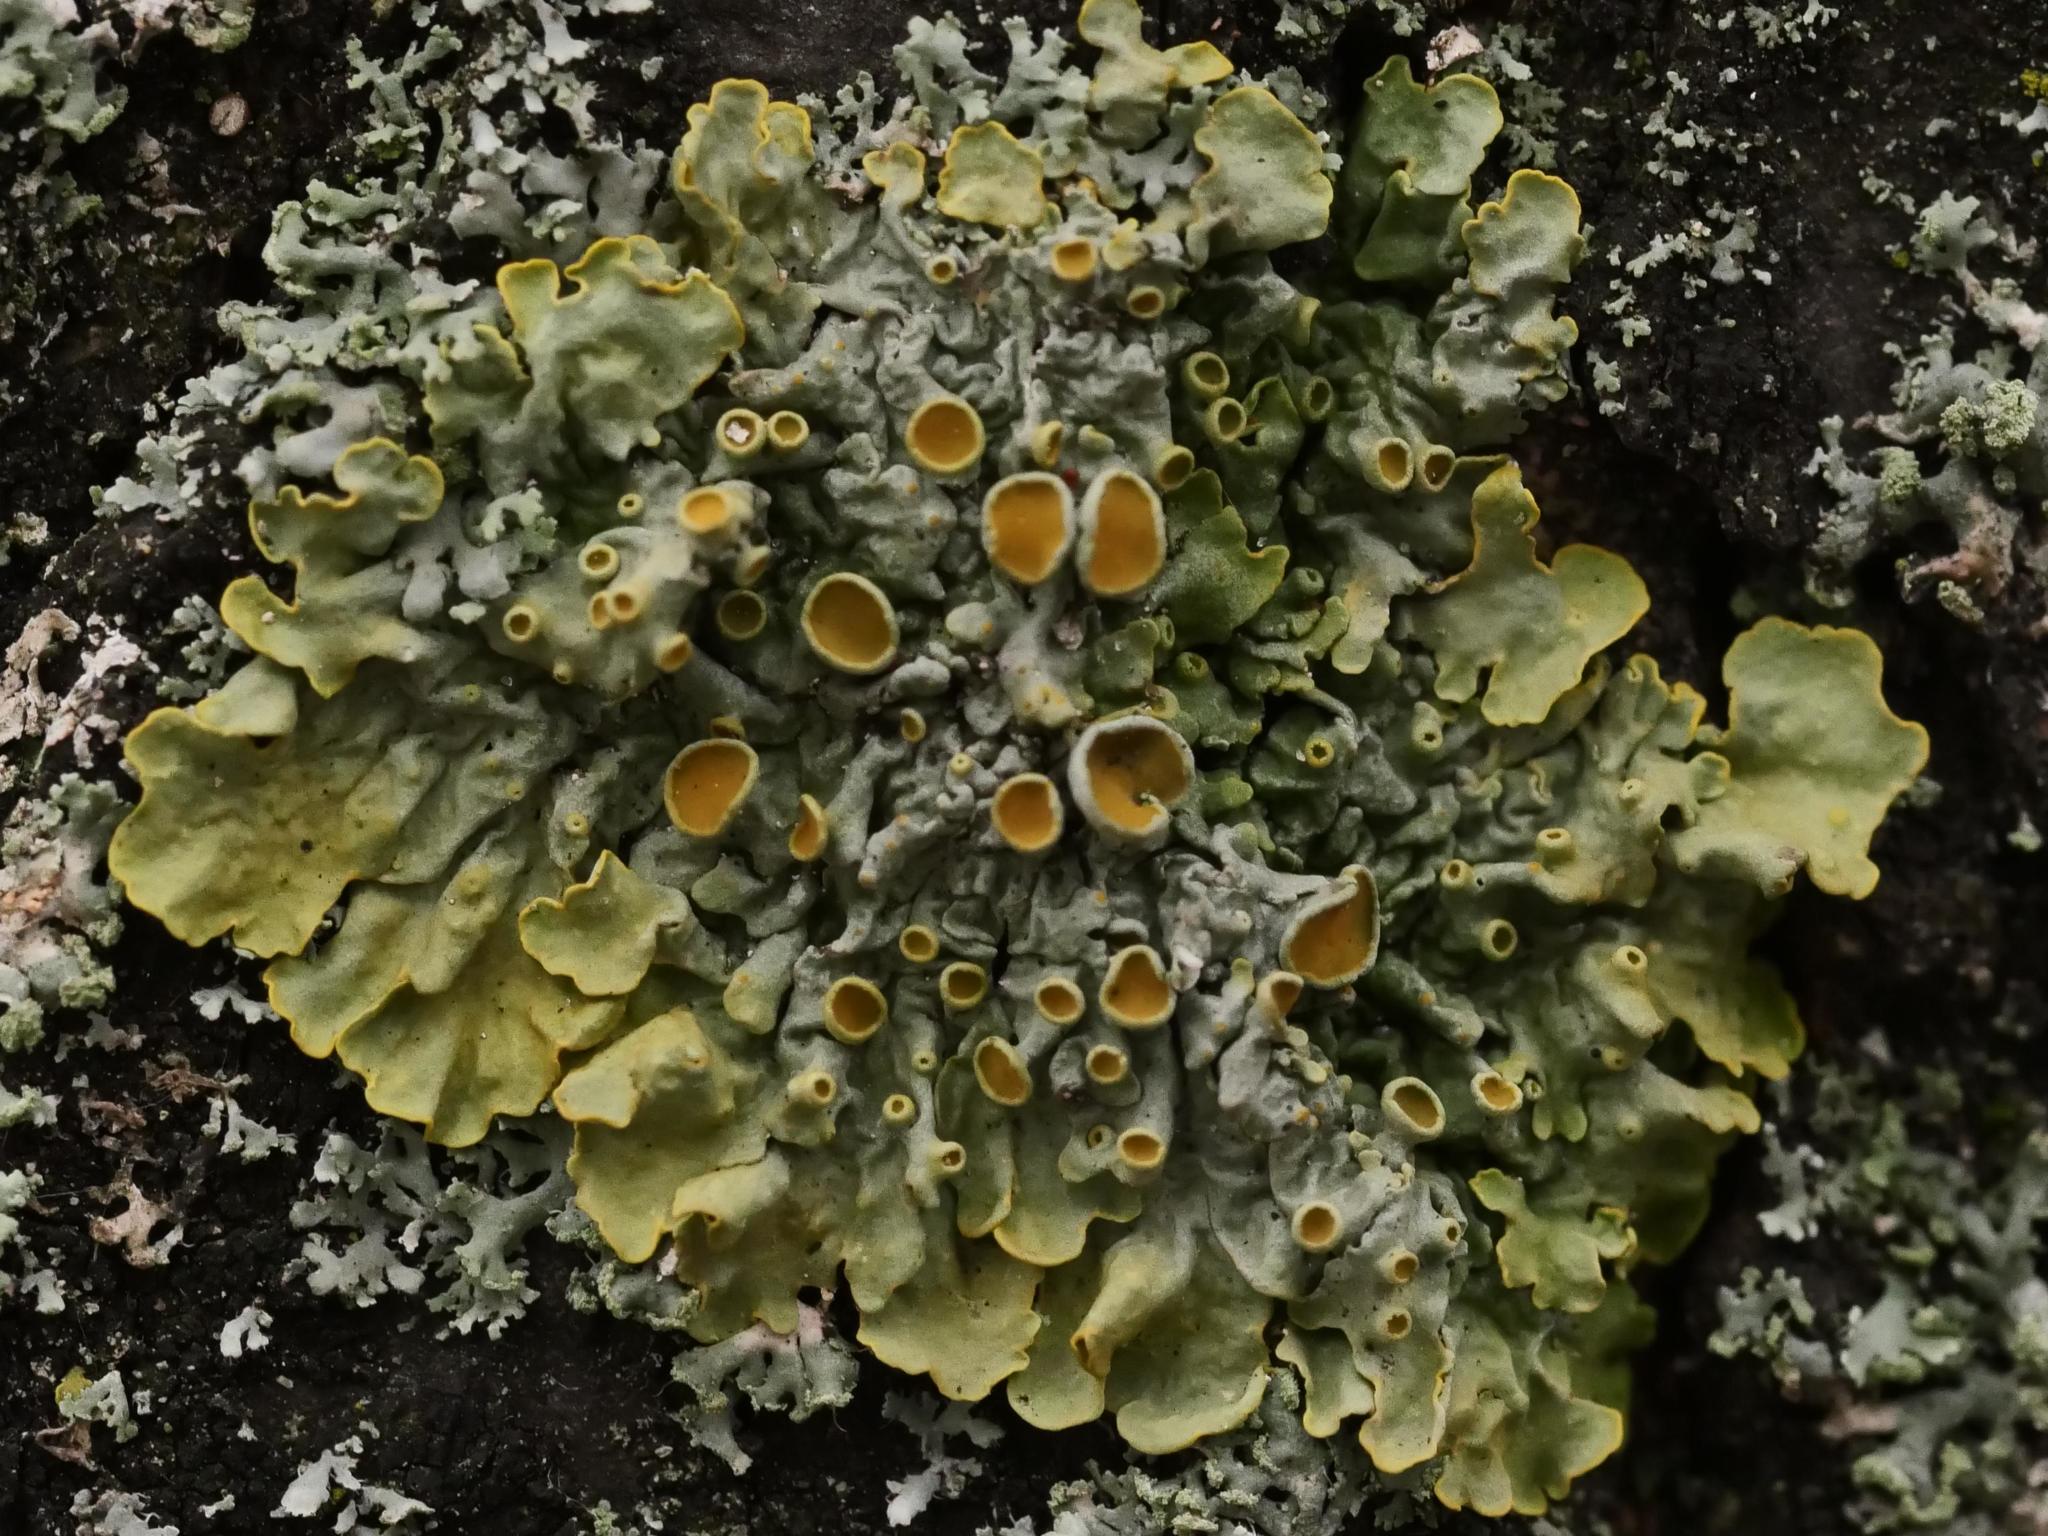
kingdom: Fungi
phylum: Ascomycota
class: Lecanoromycetes
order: Teloschistales
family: Teloschistaceae
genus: Xanthoria
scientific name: Xanthoria parietina
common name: Common orange lichen
